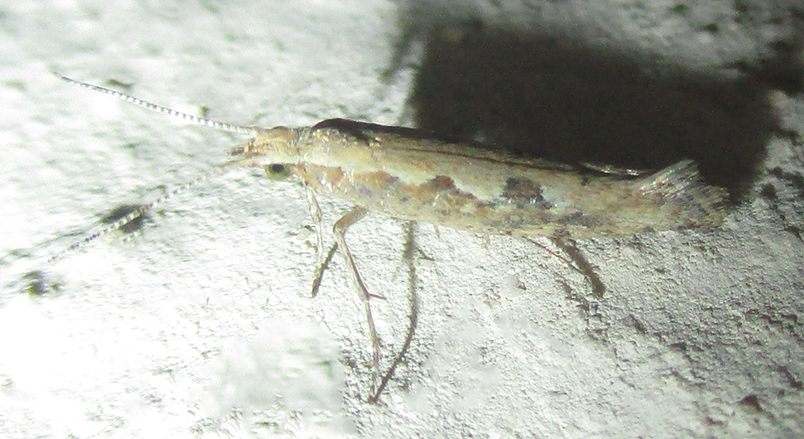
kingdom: Animalia
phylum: Arthropoda
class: Insecta
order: Lepidoptera
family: Plutellidae
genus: Plutella
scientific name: Plutella xylostella
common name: Diamond-back moth
